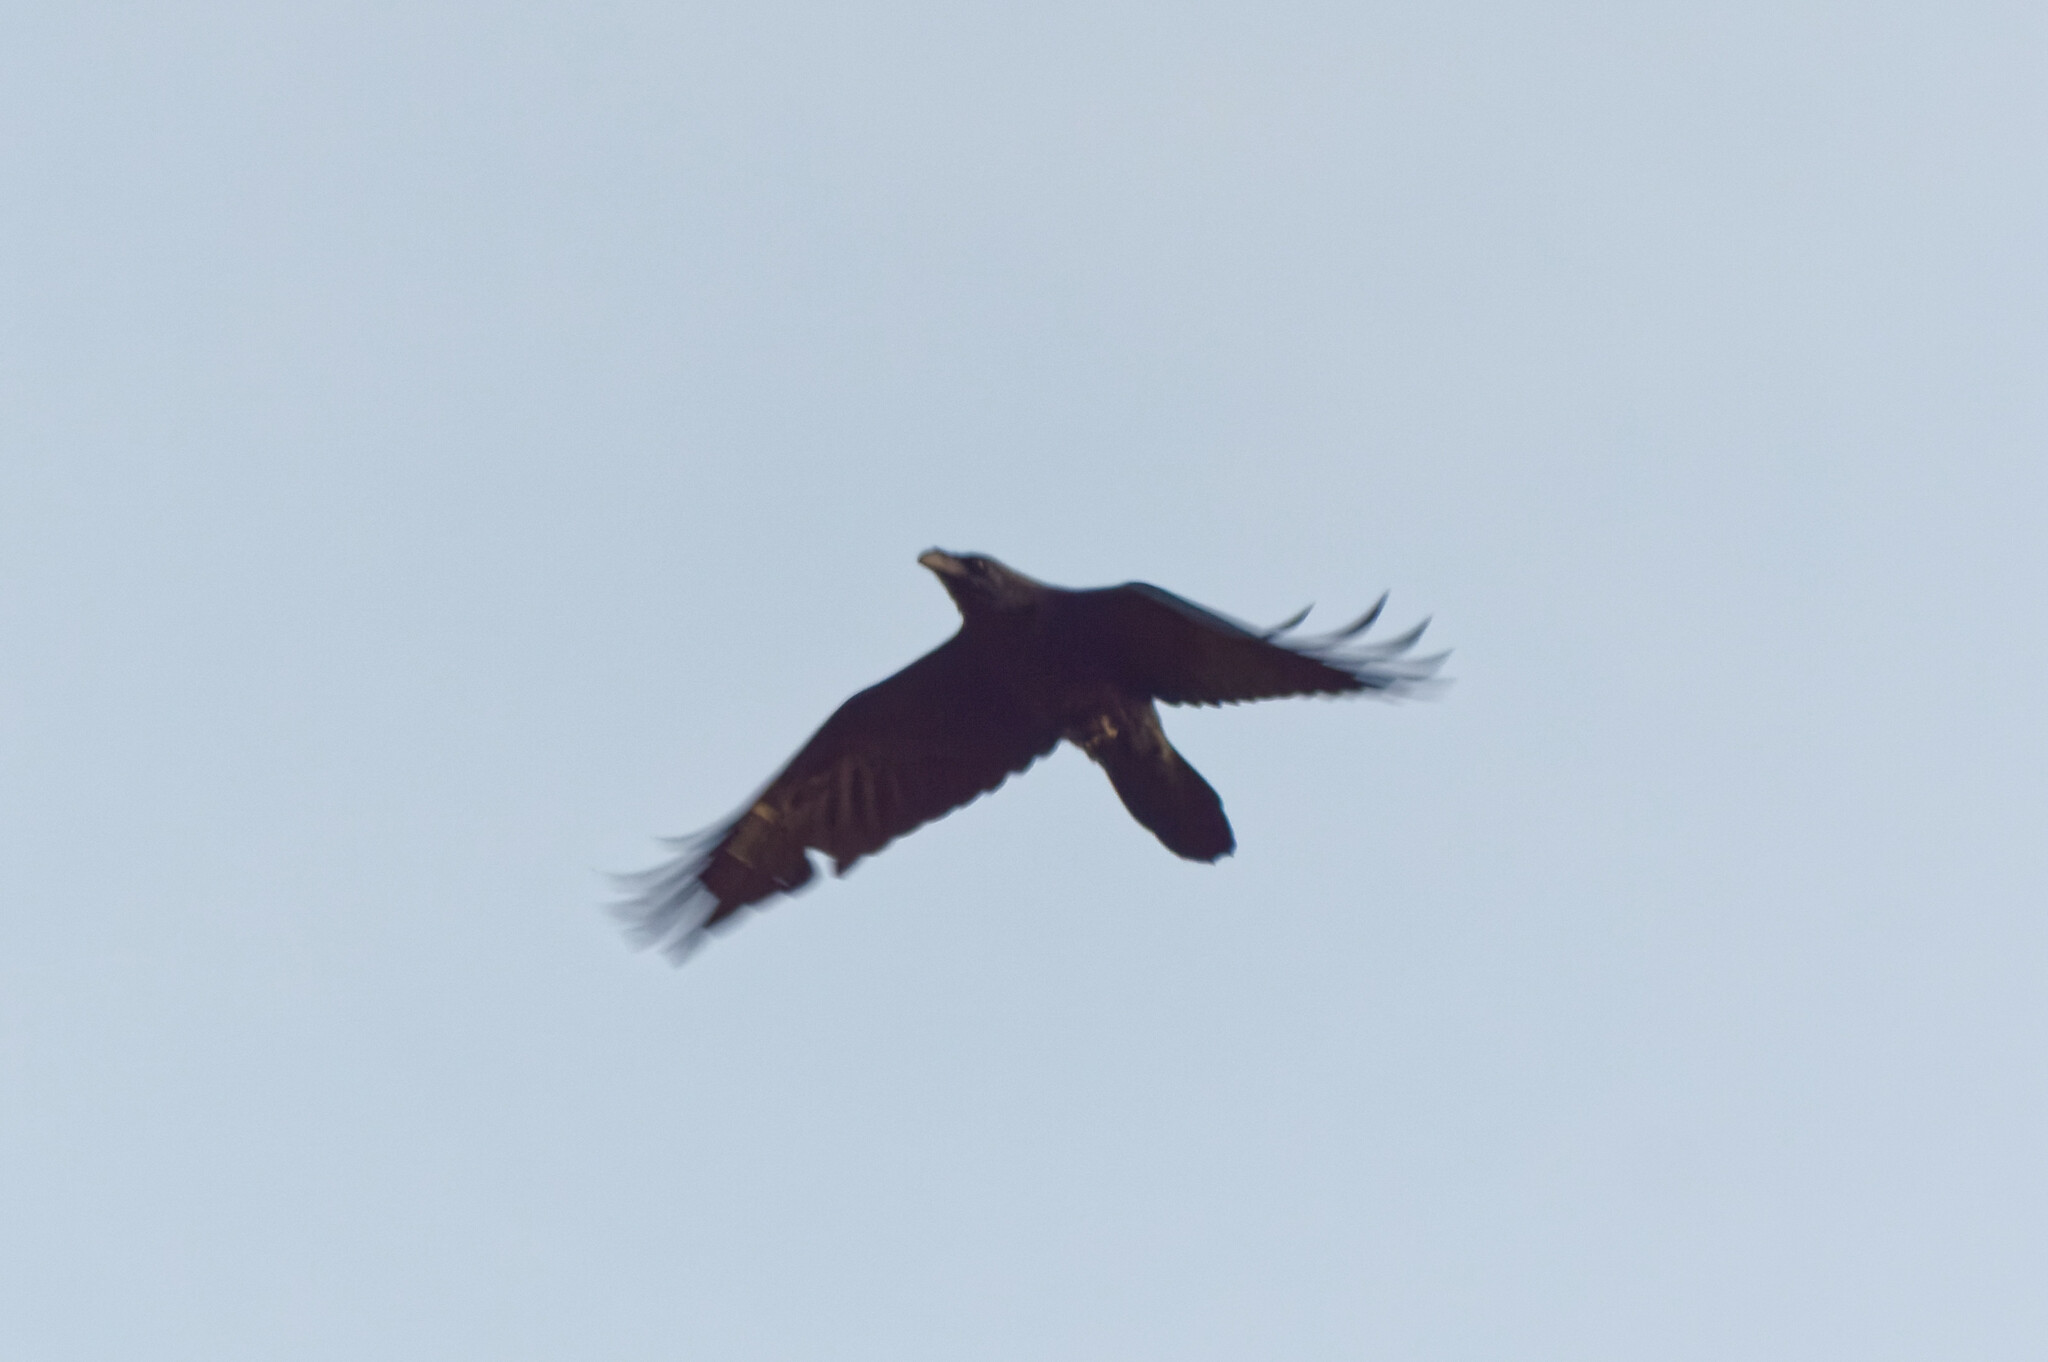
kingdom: Animalia
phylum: Chordata
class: Aves
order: Passeriformes
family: Corvidae
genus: Corvus
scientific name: Corvus corax
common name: Common raven
